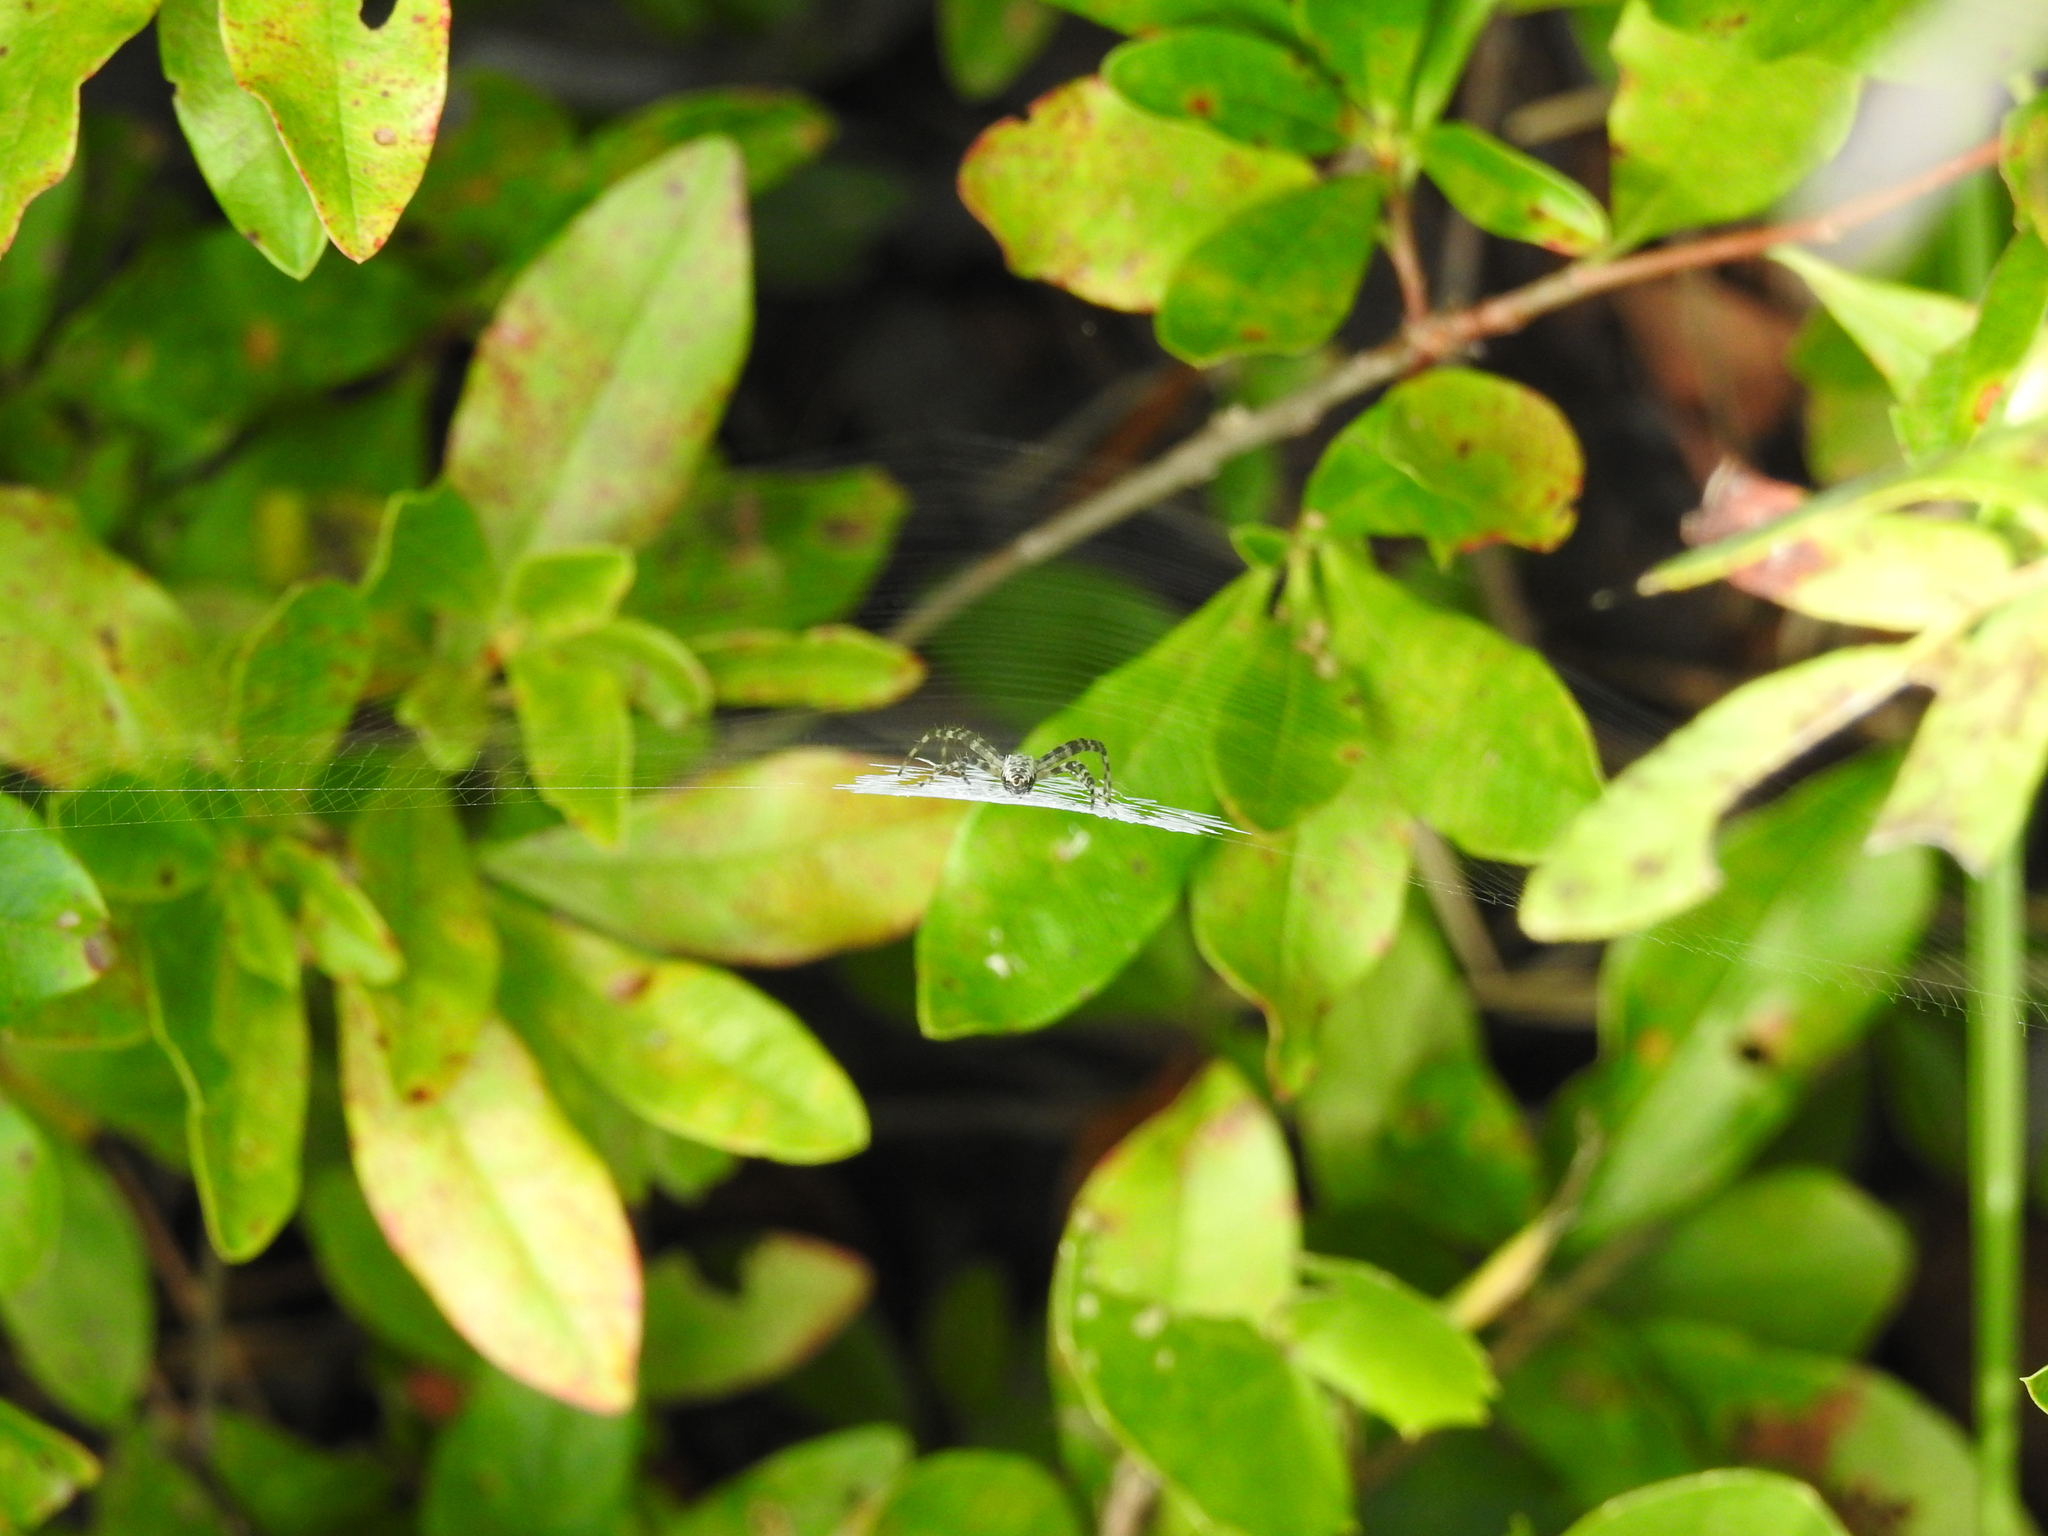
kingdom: Animalia
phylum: Arthropoda
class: Arachnida
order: Araneae
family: Araneidae
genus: Argiope
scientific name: Argiope aurantia
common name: Orb weavers
